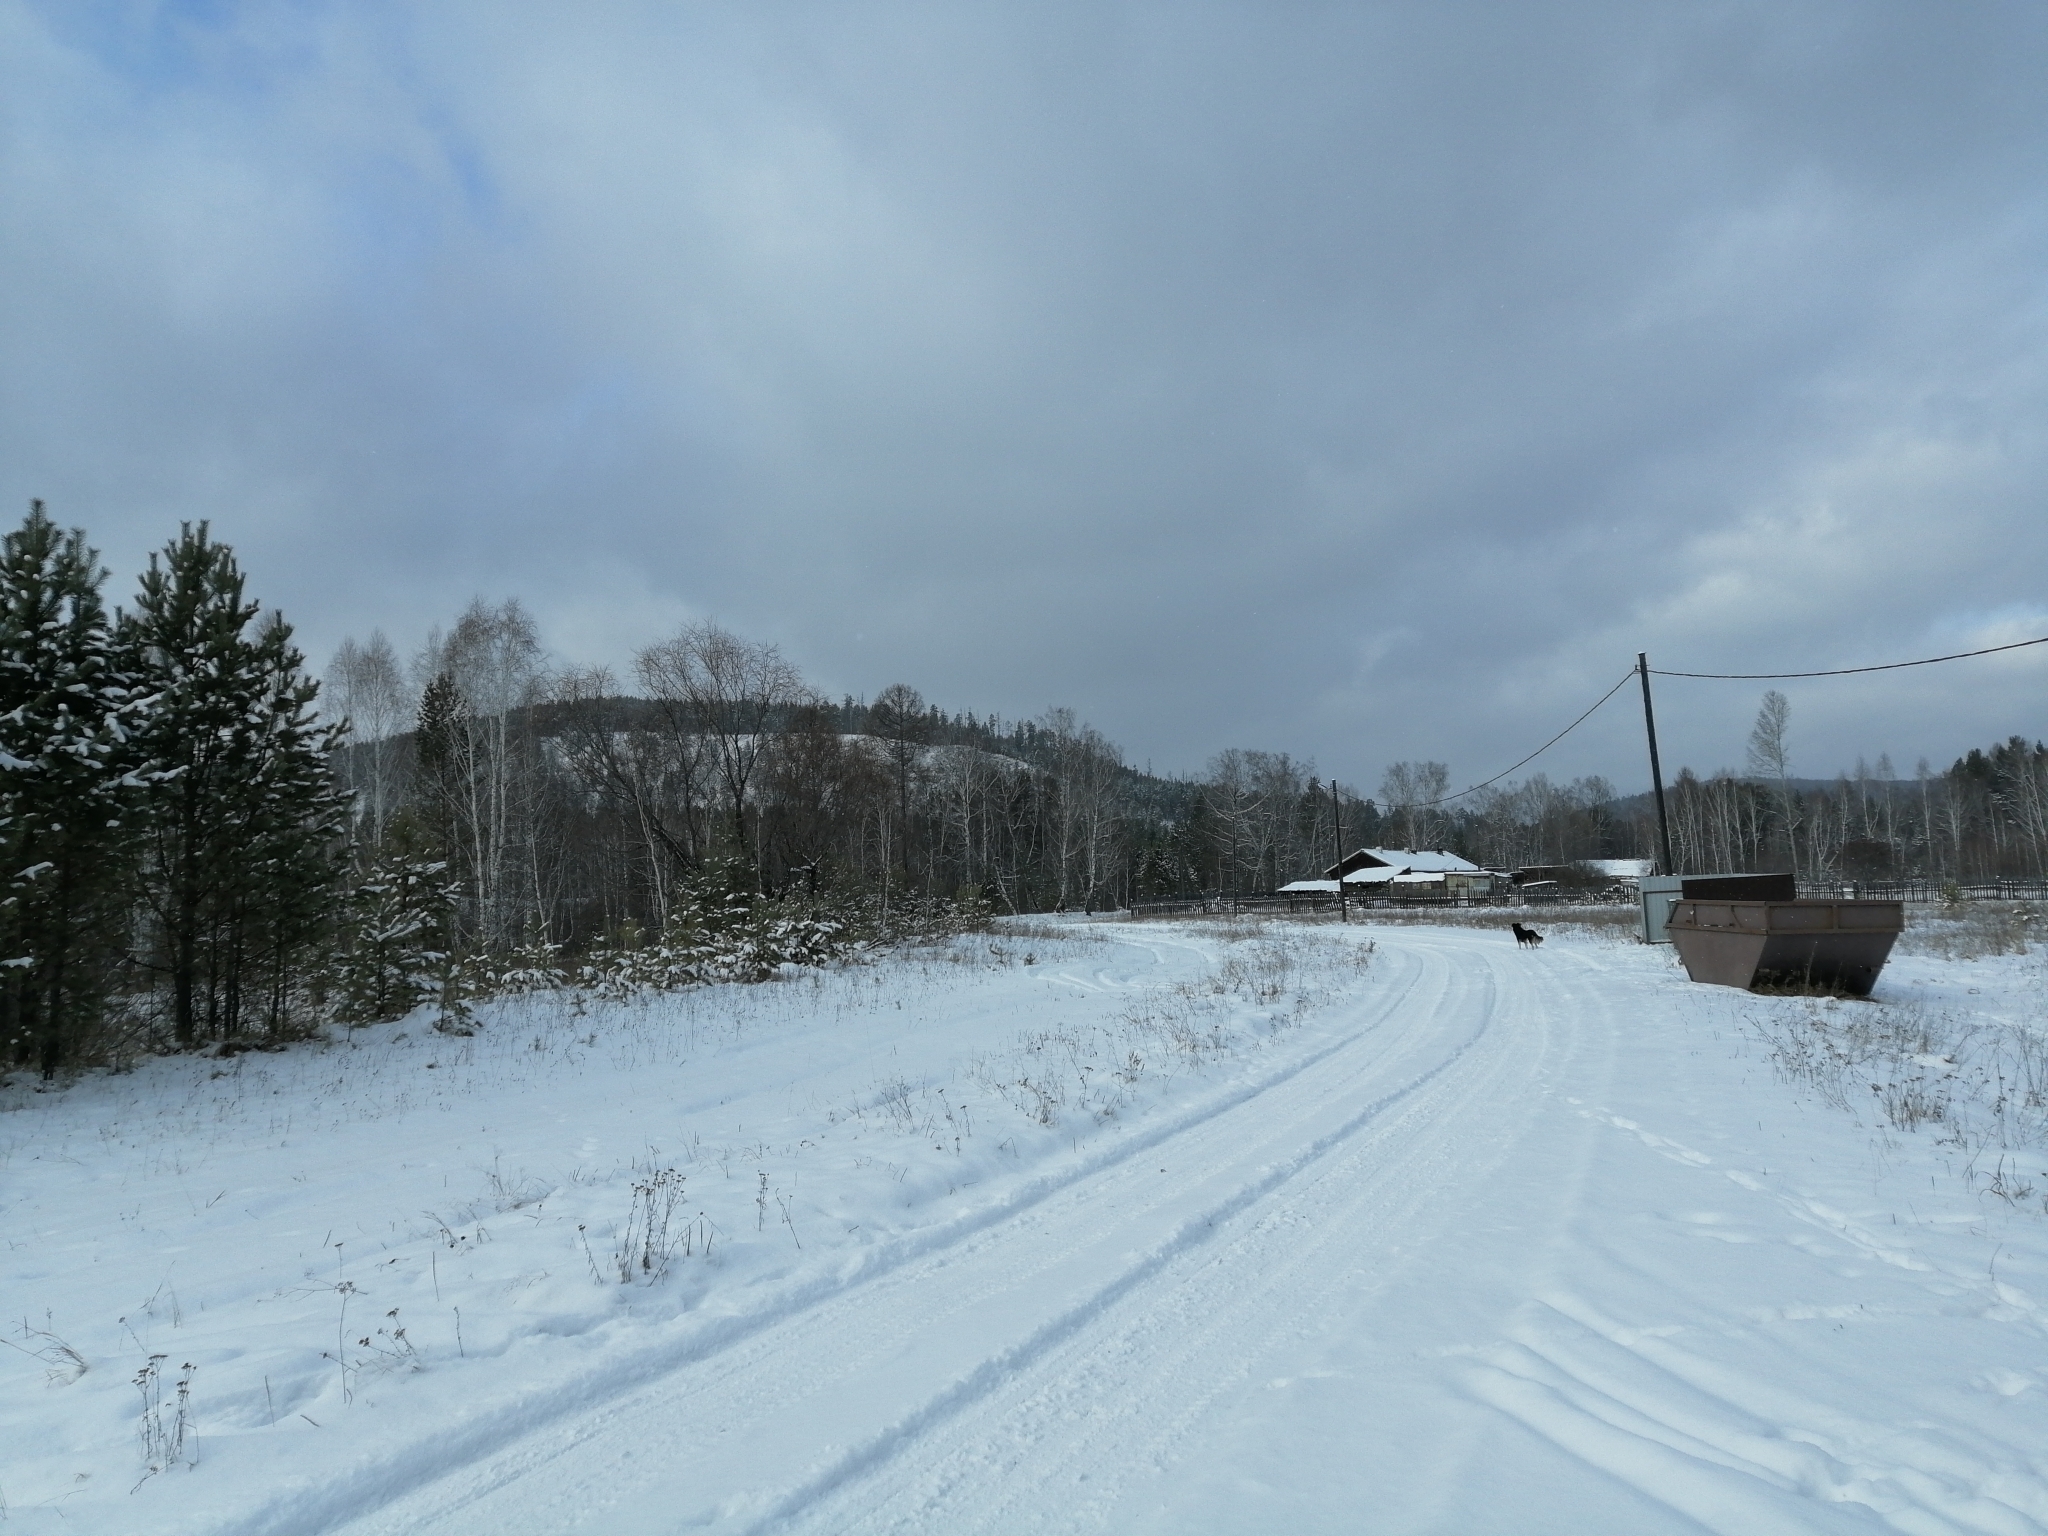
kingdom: Plantae
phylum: Tracheophyta
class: Pinopsida
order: Pinales
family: Pinaceae
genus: Pinus
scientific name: Pinus sylvestris
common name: Scots pine
